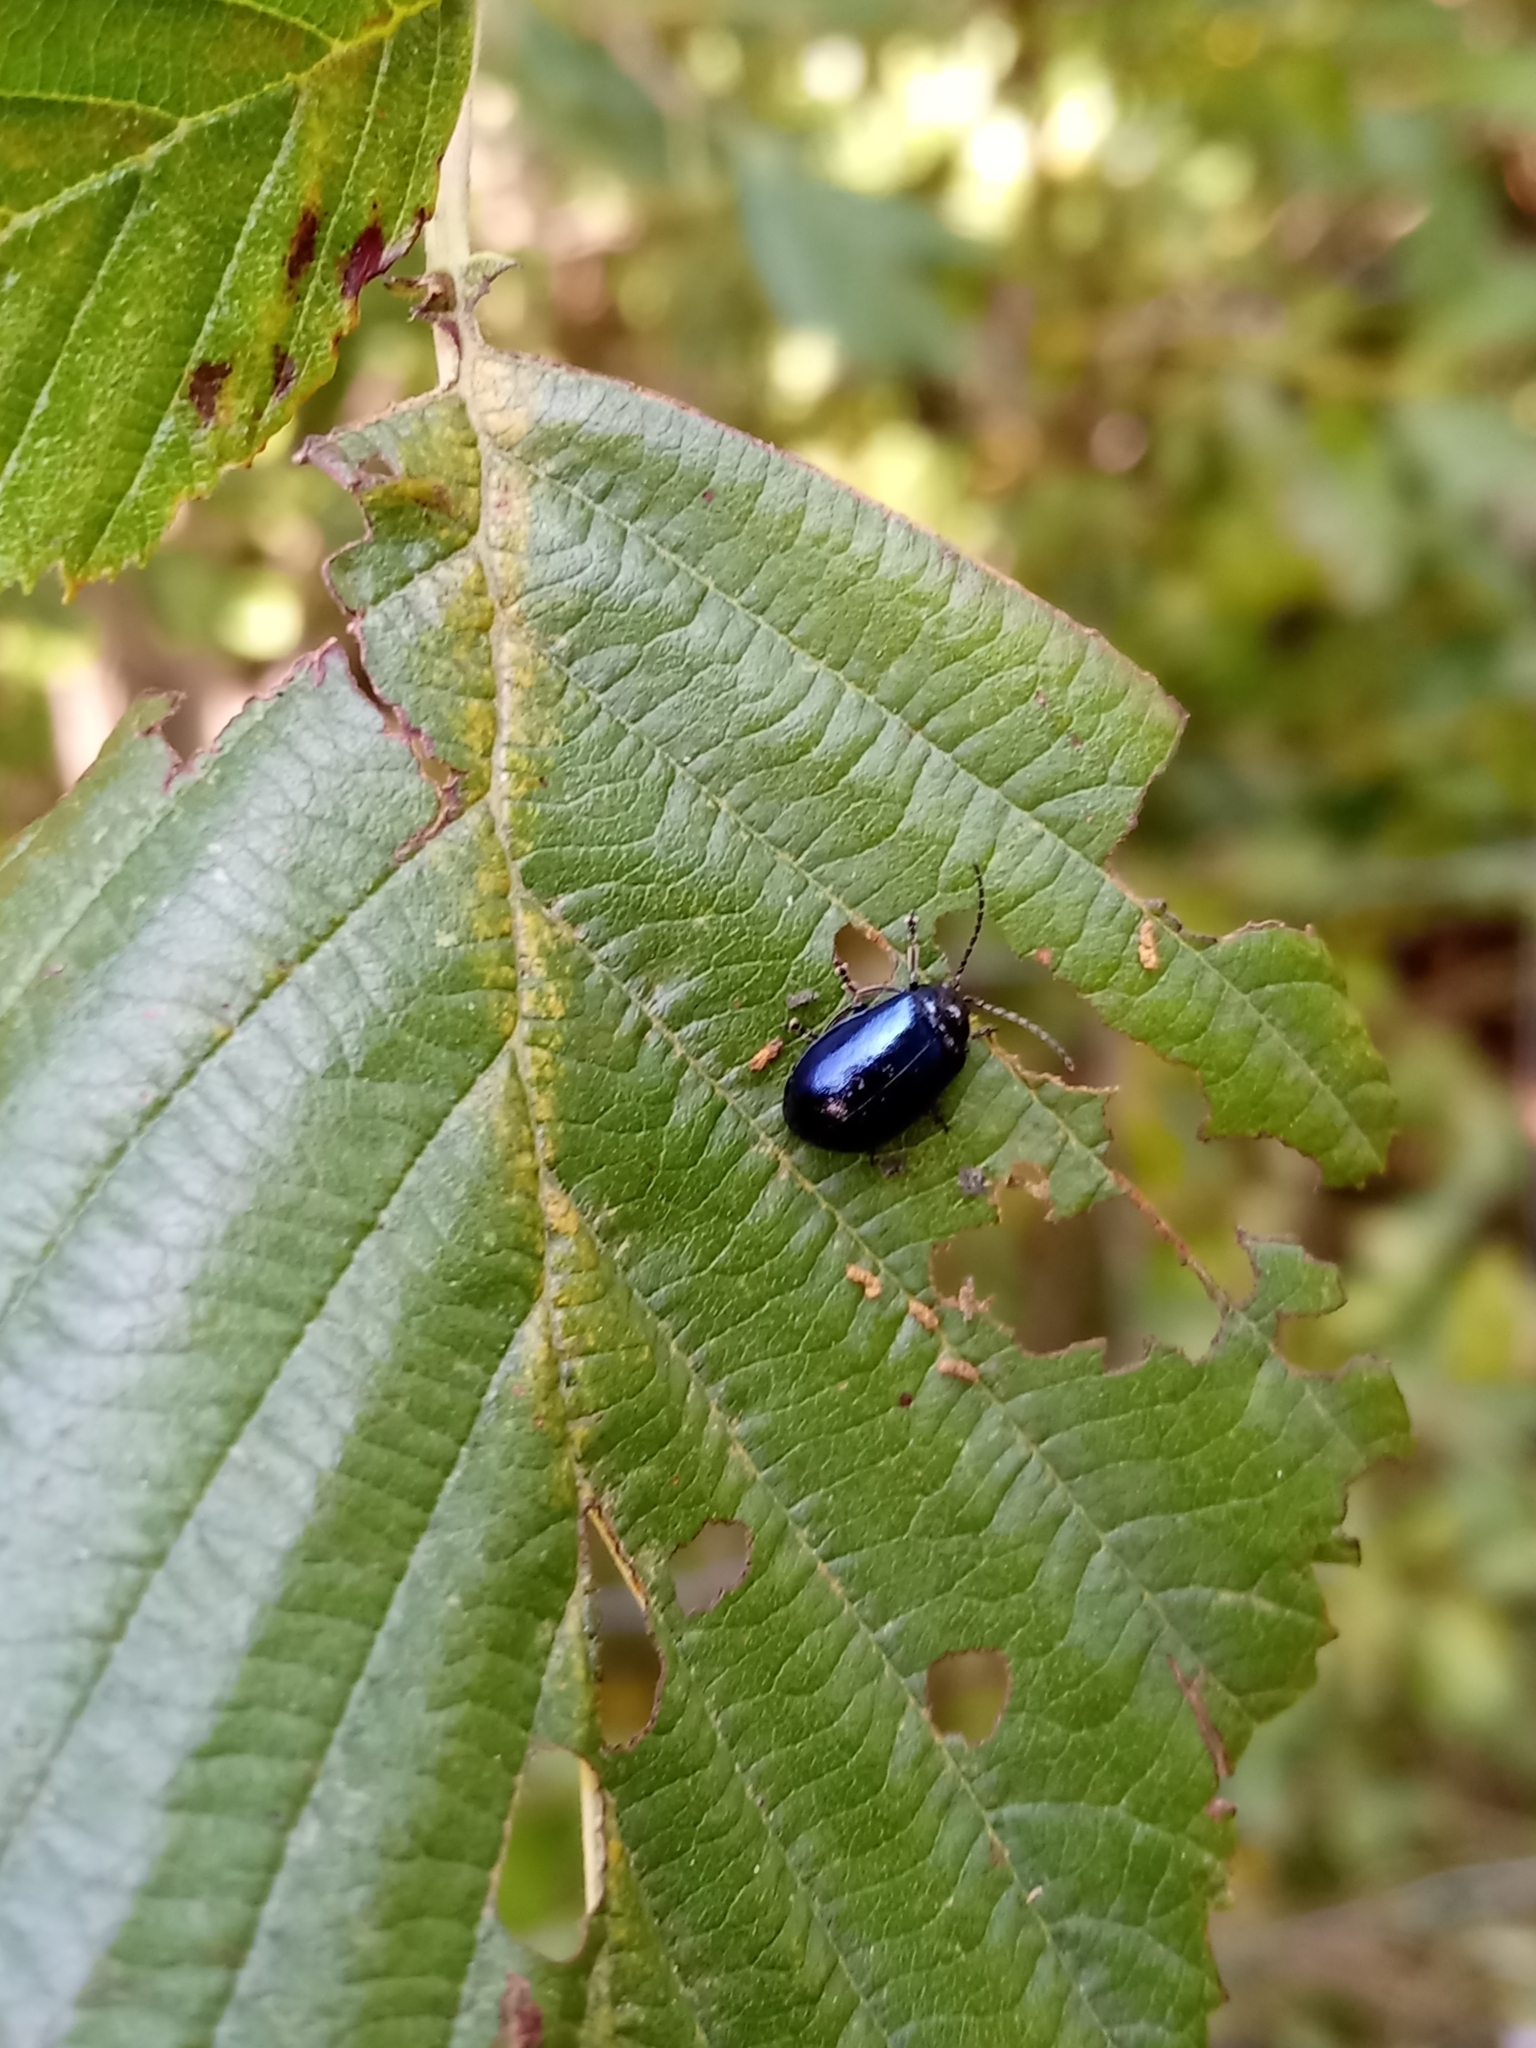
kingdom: Animalia
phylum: Arthropoda
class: Insecta
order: Coleoptera
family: Chrysomelidae
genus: Agelastica
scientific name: Agelastica alni
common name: Alder leaf beetle
